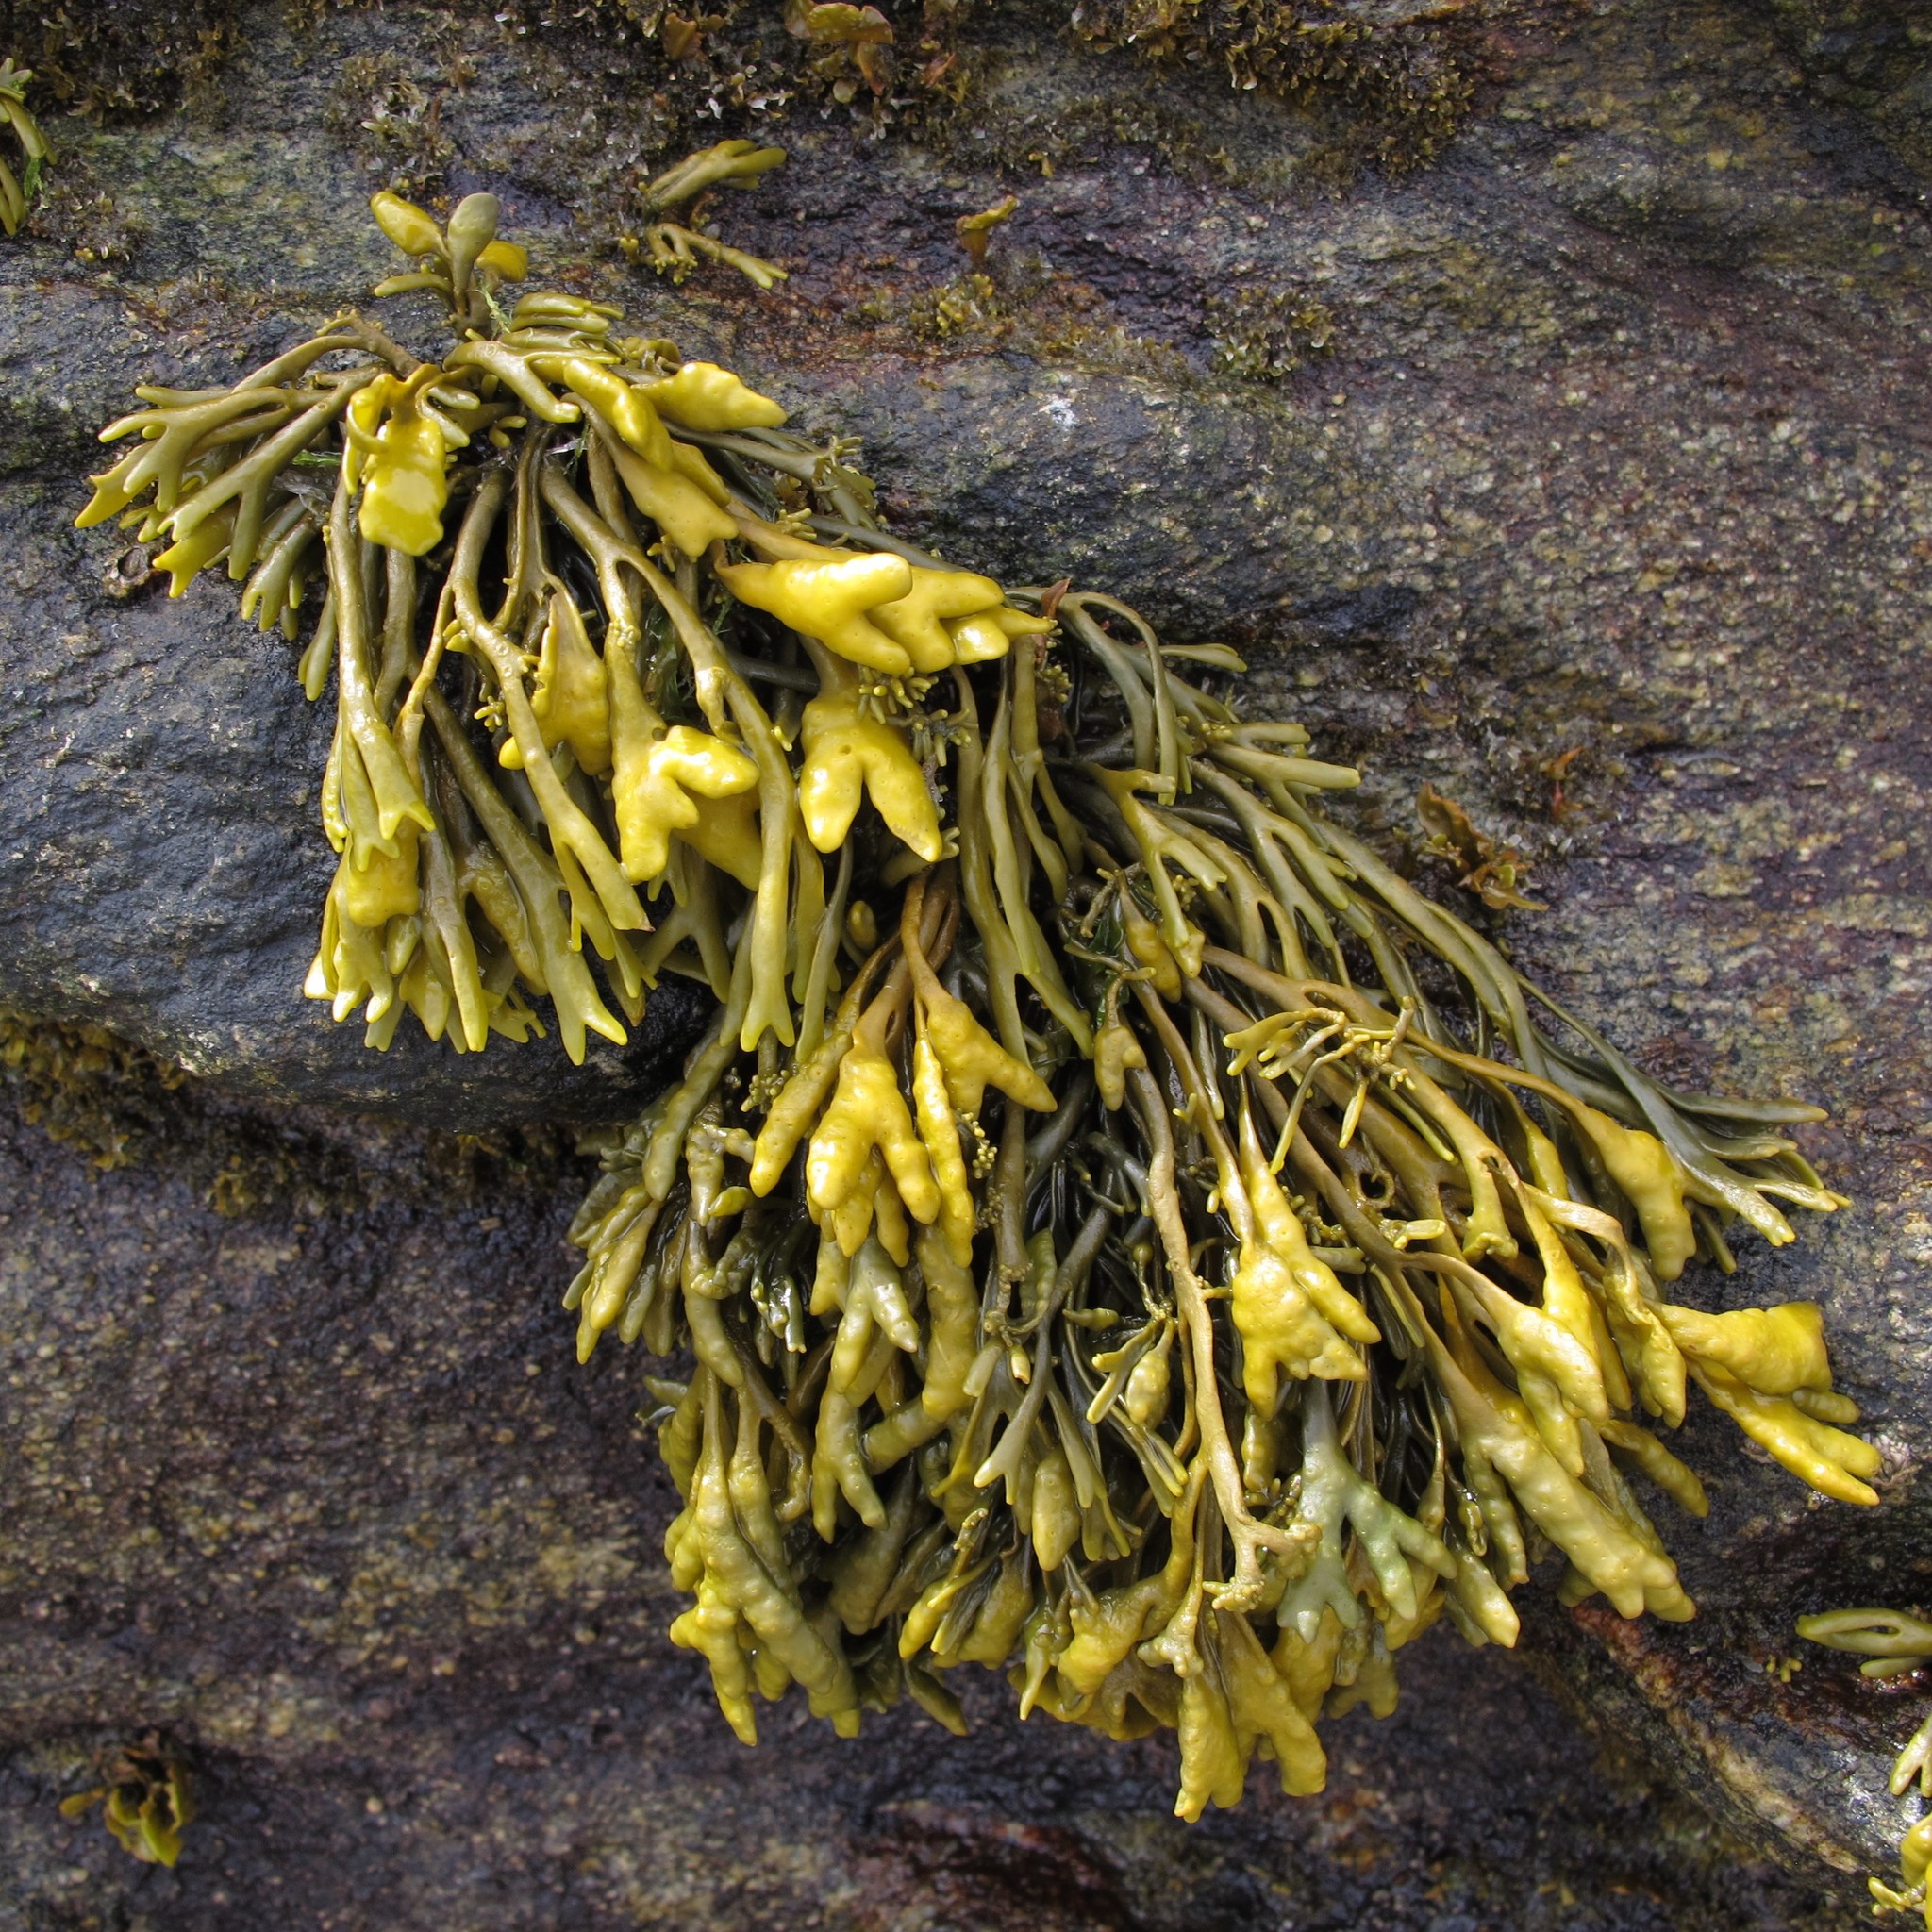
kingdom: Chromista
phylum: Ochrophyta
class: Phaeophyceae
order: Fucales
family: Fucaceae
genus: Pelvetia
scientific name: Pelvetia canaliculata
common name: Channelled wrack
